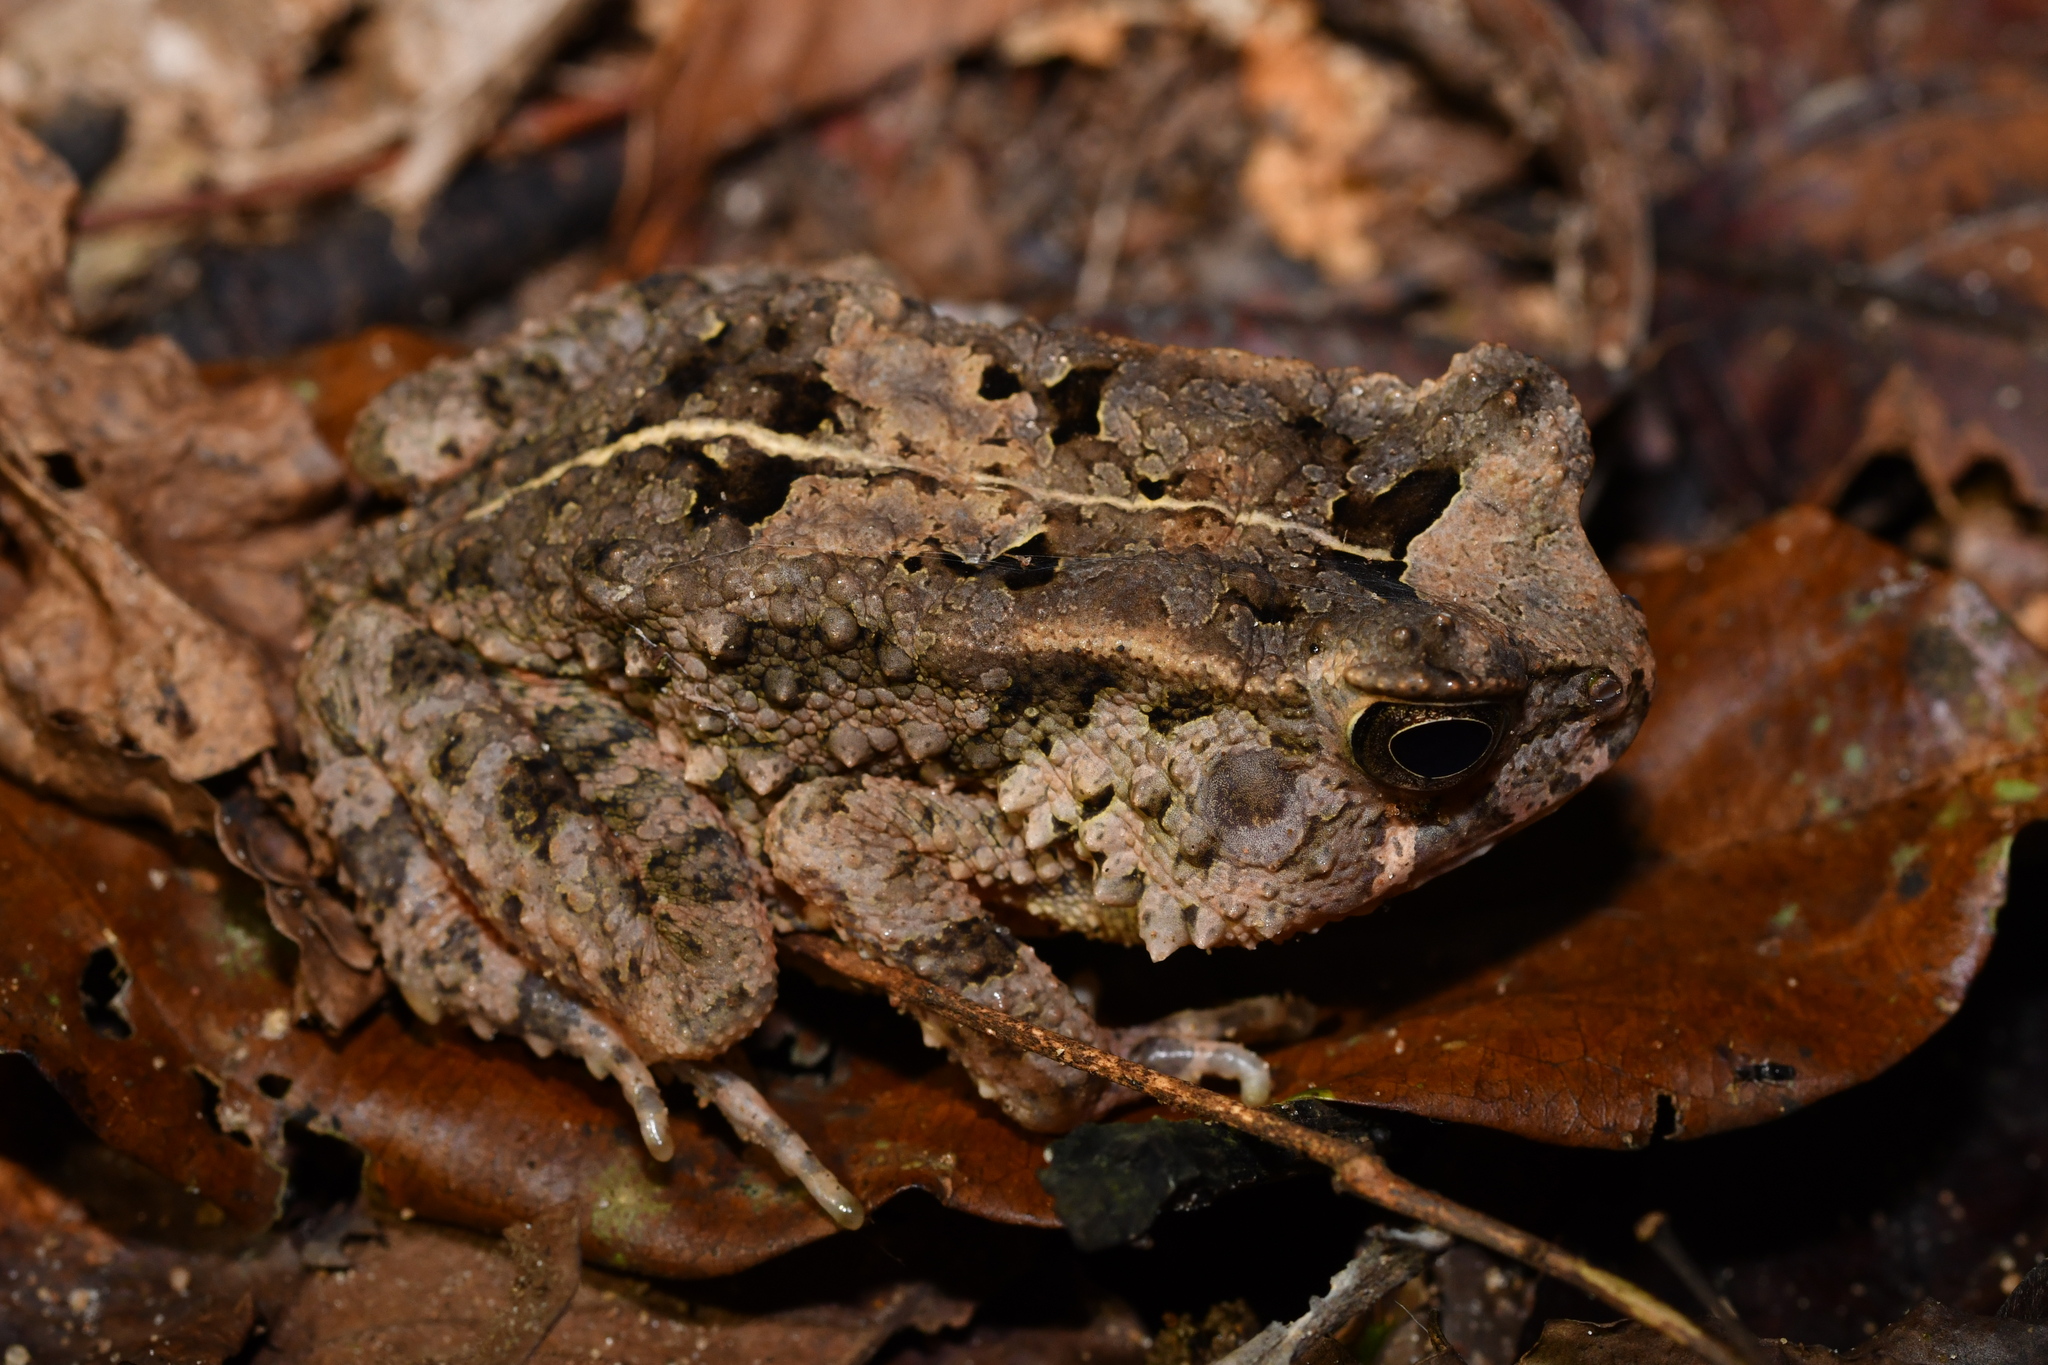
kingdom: Animalia
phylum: Chordata
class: Amphibia
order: Anura
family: Bufonidae
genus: Sclerophrys
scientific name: Sclerophrys togoensis
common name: Togo toad
